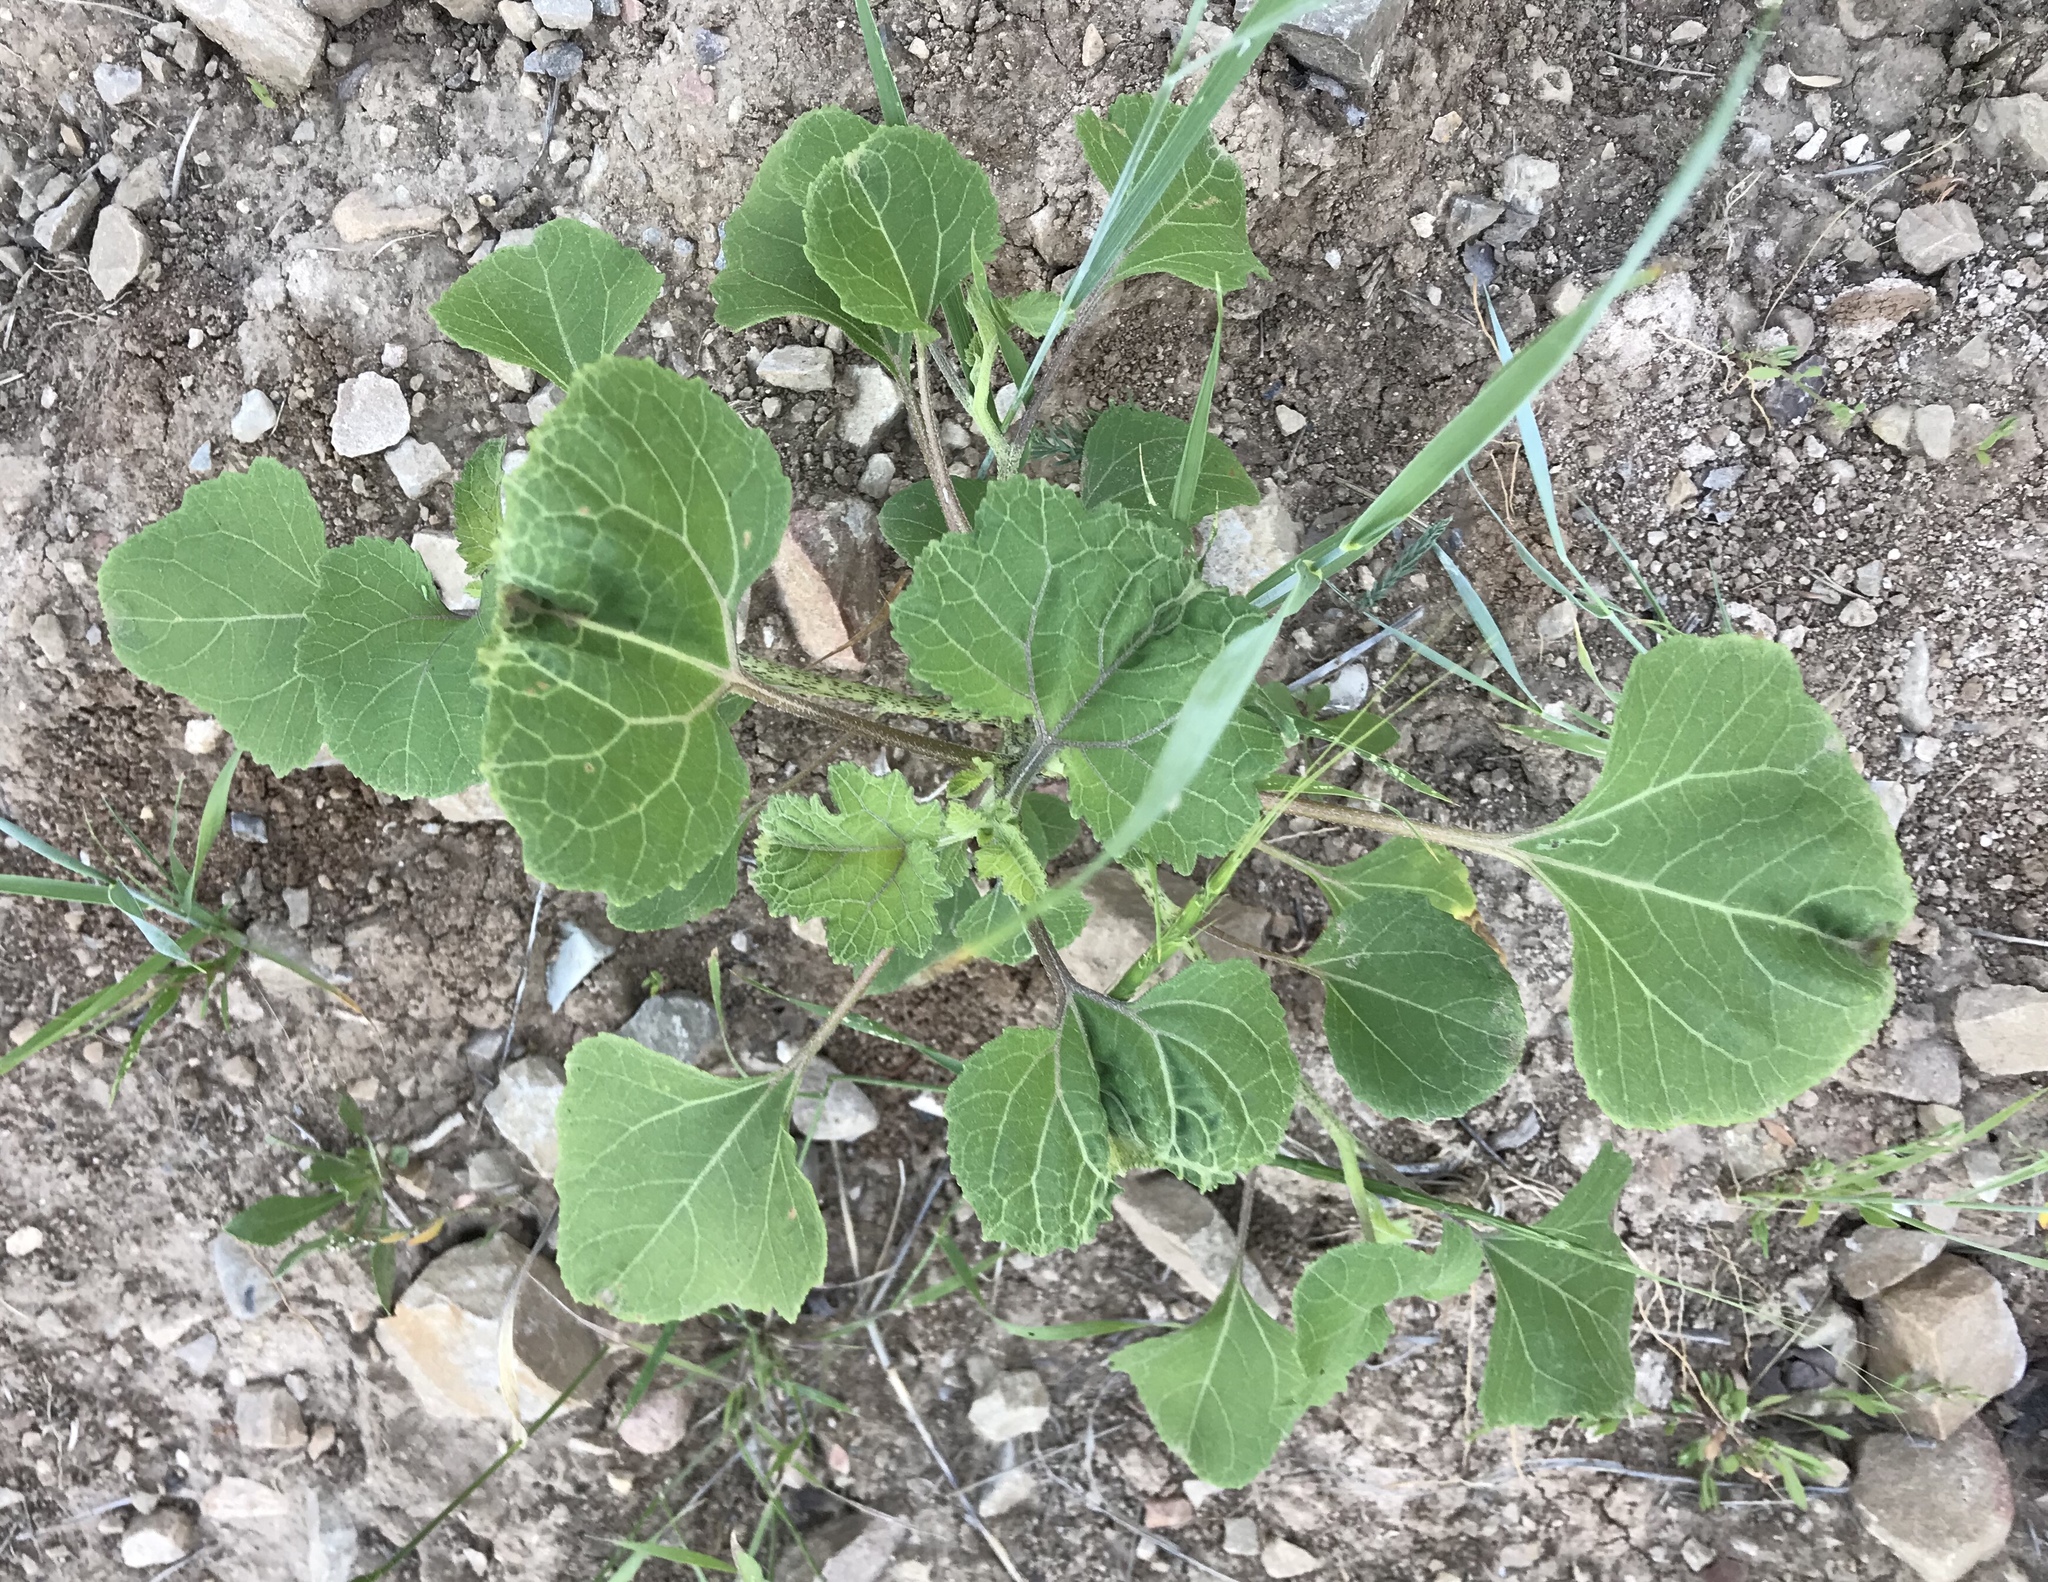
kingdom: Plantae
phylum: Tracheophyta
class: Magnoliopsida
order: Asterales
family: Asteraceae
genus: Xanthium
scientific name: Xanthium strumarium
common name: Rough cocklebur
